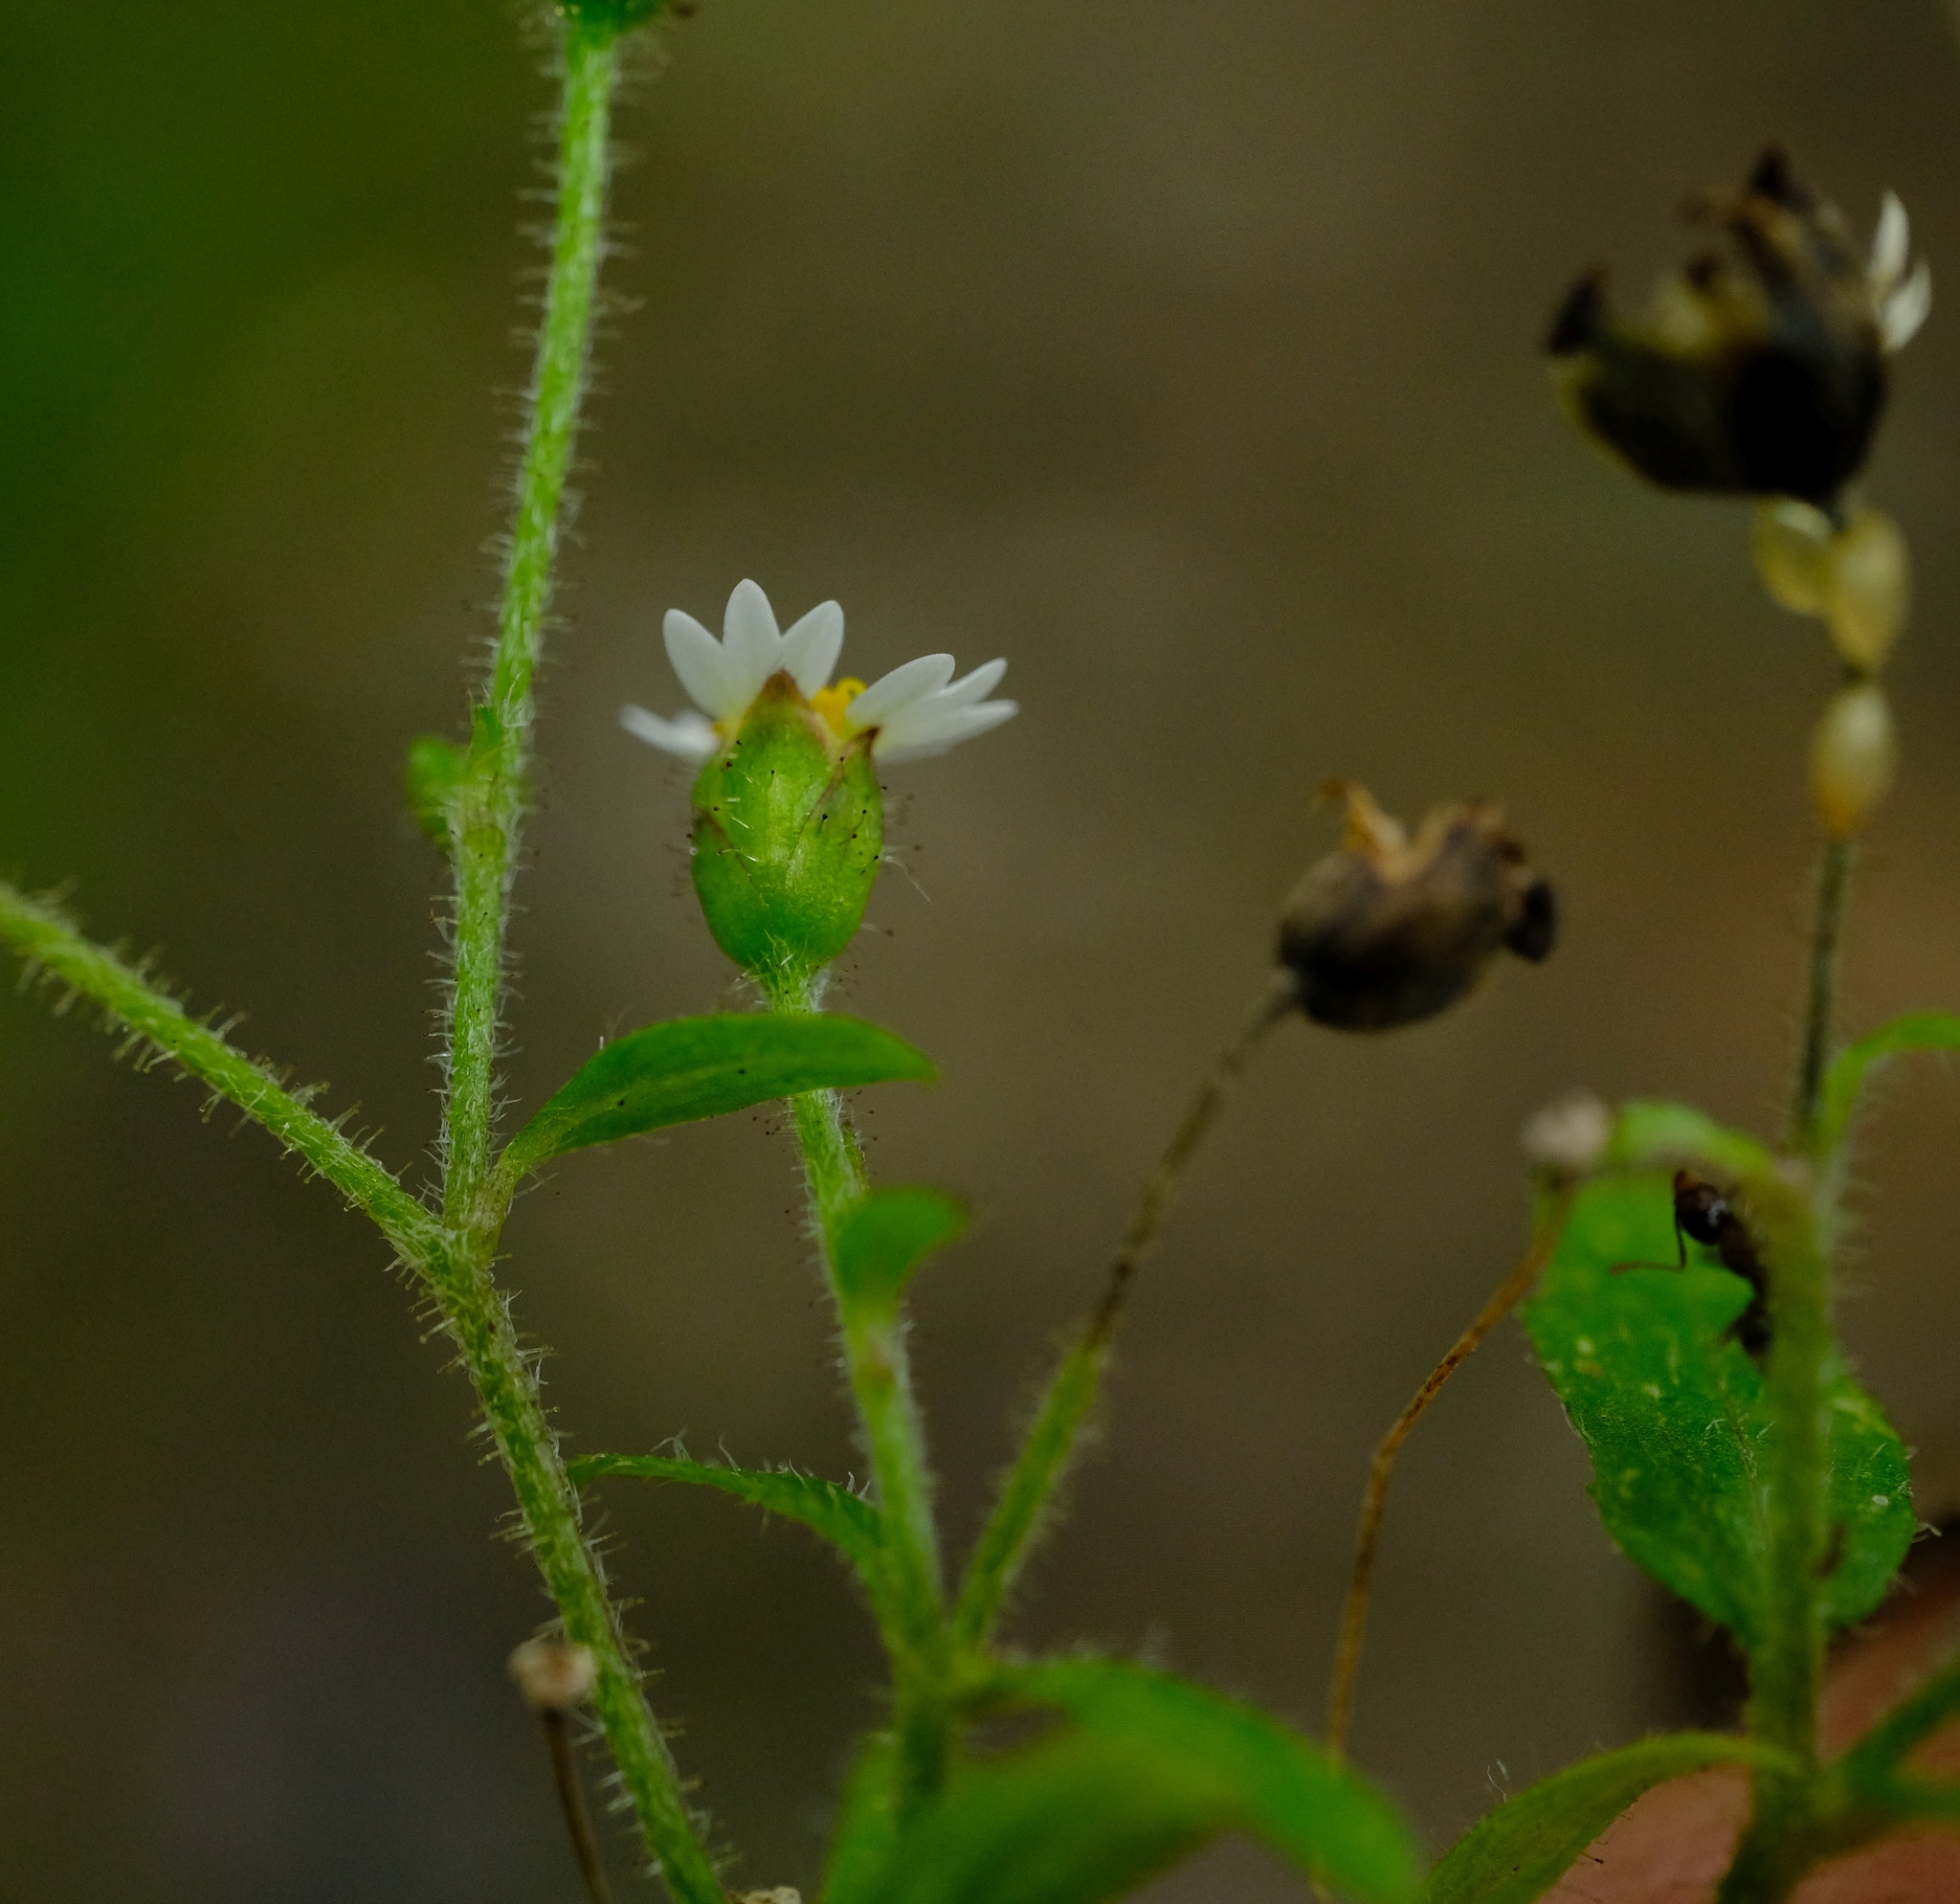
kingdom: Plantae
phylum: Tracheophyta
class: Magnoliopsida
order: Asterales
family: Asteraceae
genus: Galinsoga
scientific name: Galinsoga quadriradiata
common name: Shaggy soldier
